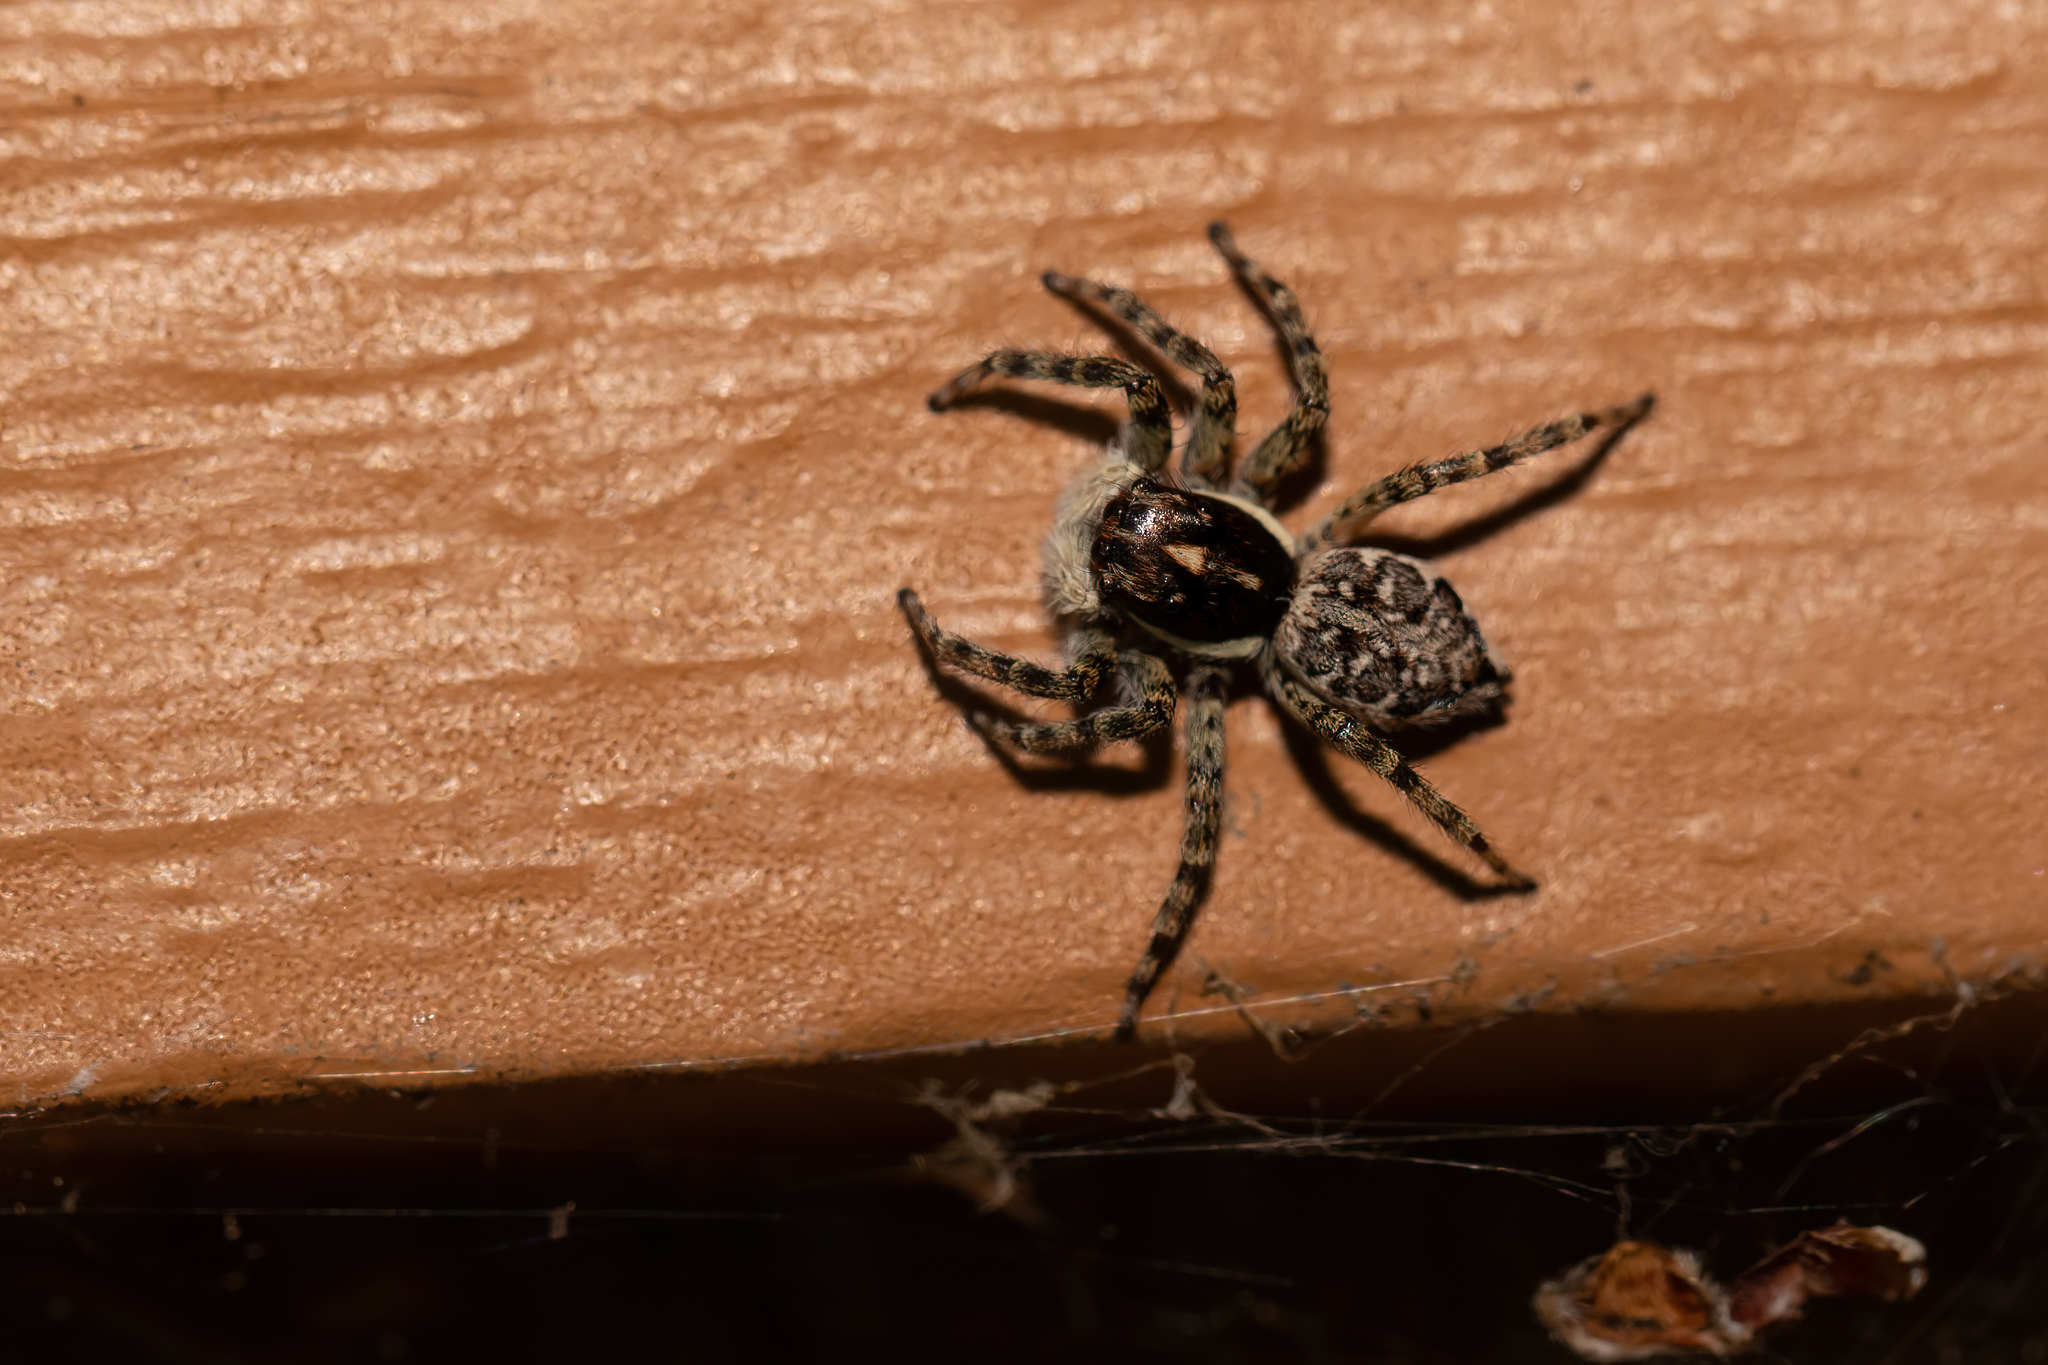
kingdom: Animalia
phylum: Arthropoda
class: Arachnida
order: Araneae
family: Salticidae
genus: Menemerus
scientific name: Menemerus semilimbatus
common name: Jumping spider
